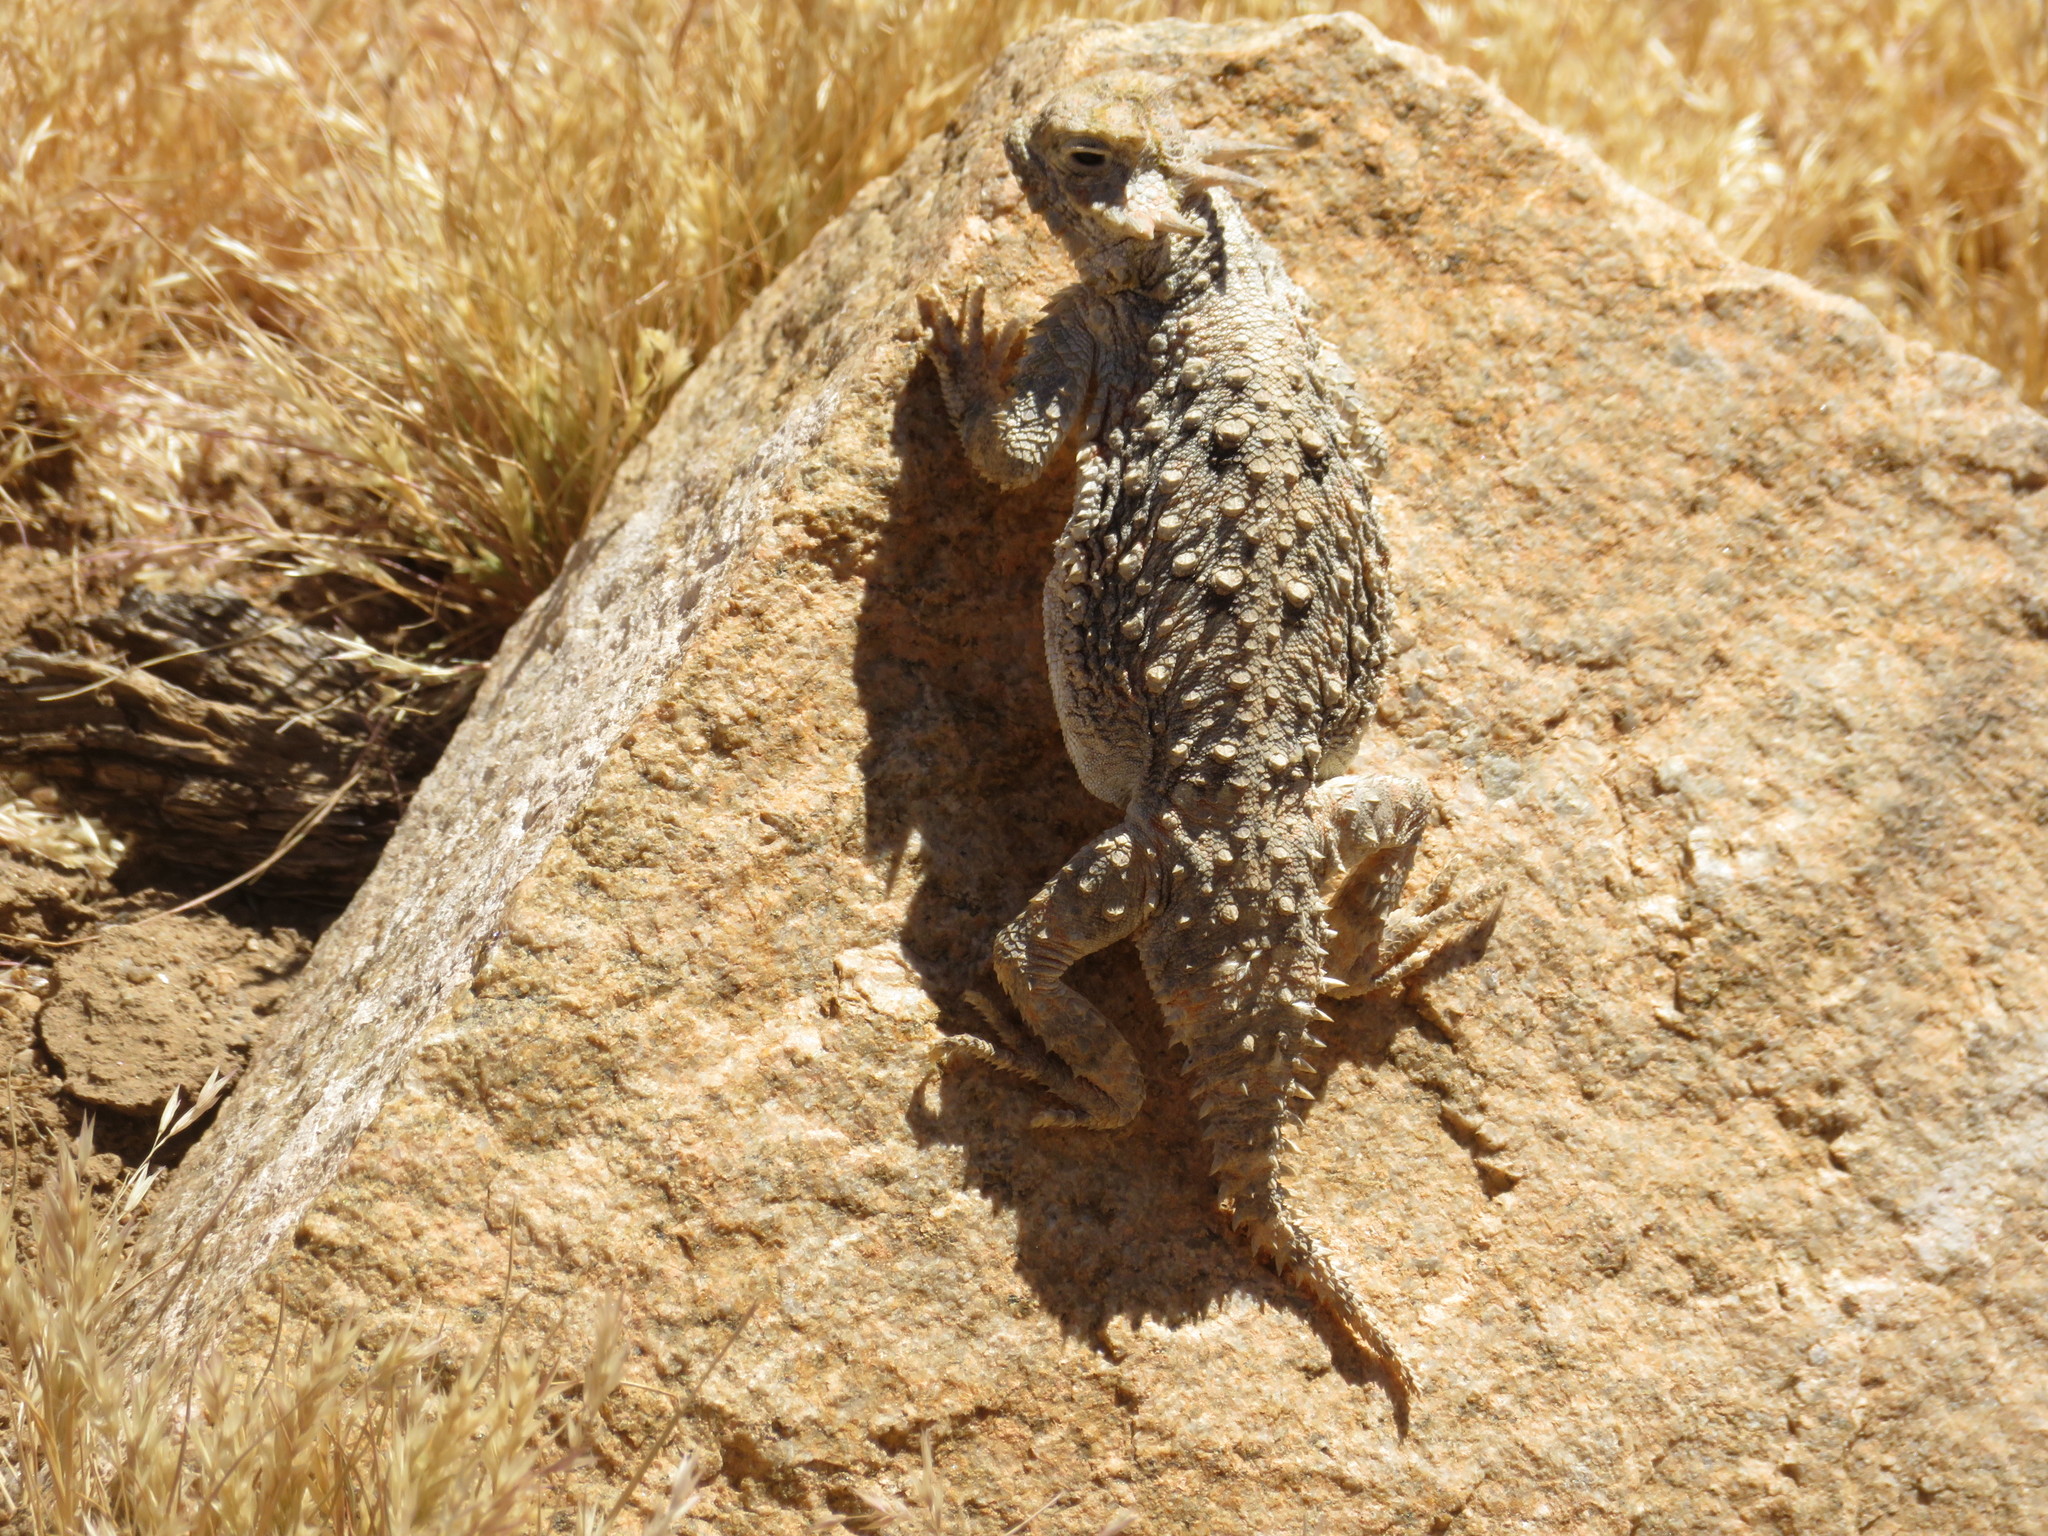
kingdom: Animalia
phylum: Chordata
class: Squamata
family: Phrynosomatidae
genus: Phrynosoma
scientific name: Phrynosoma platyrhinos
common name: Desert horned lizard
